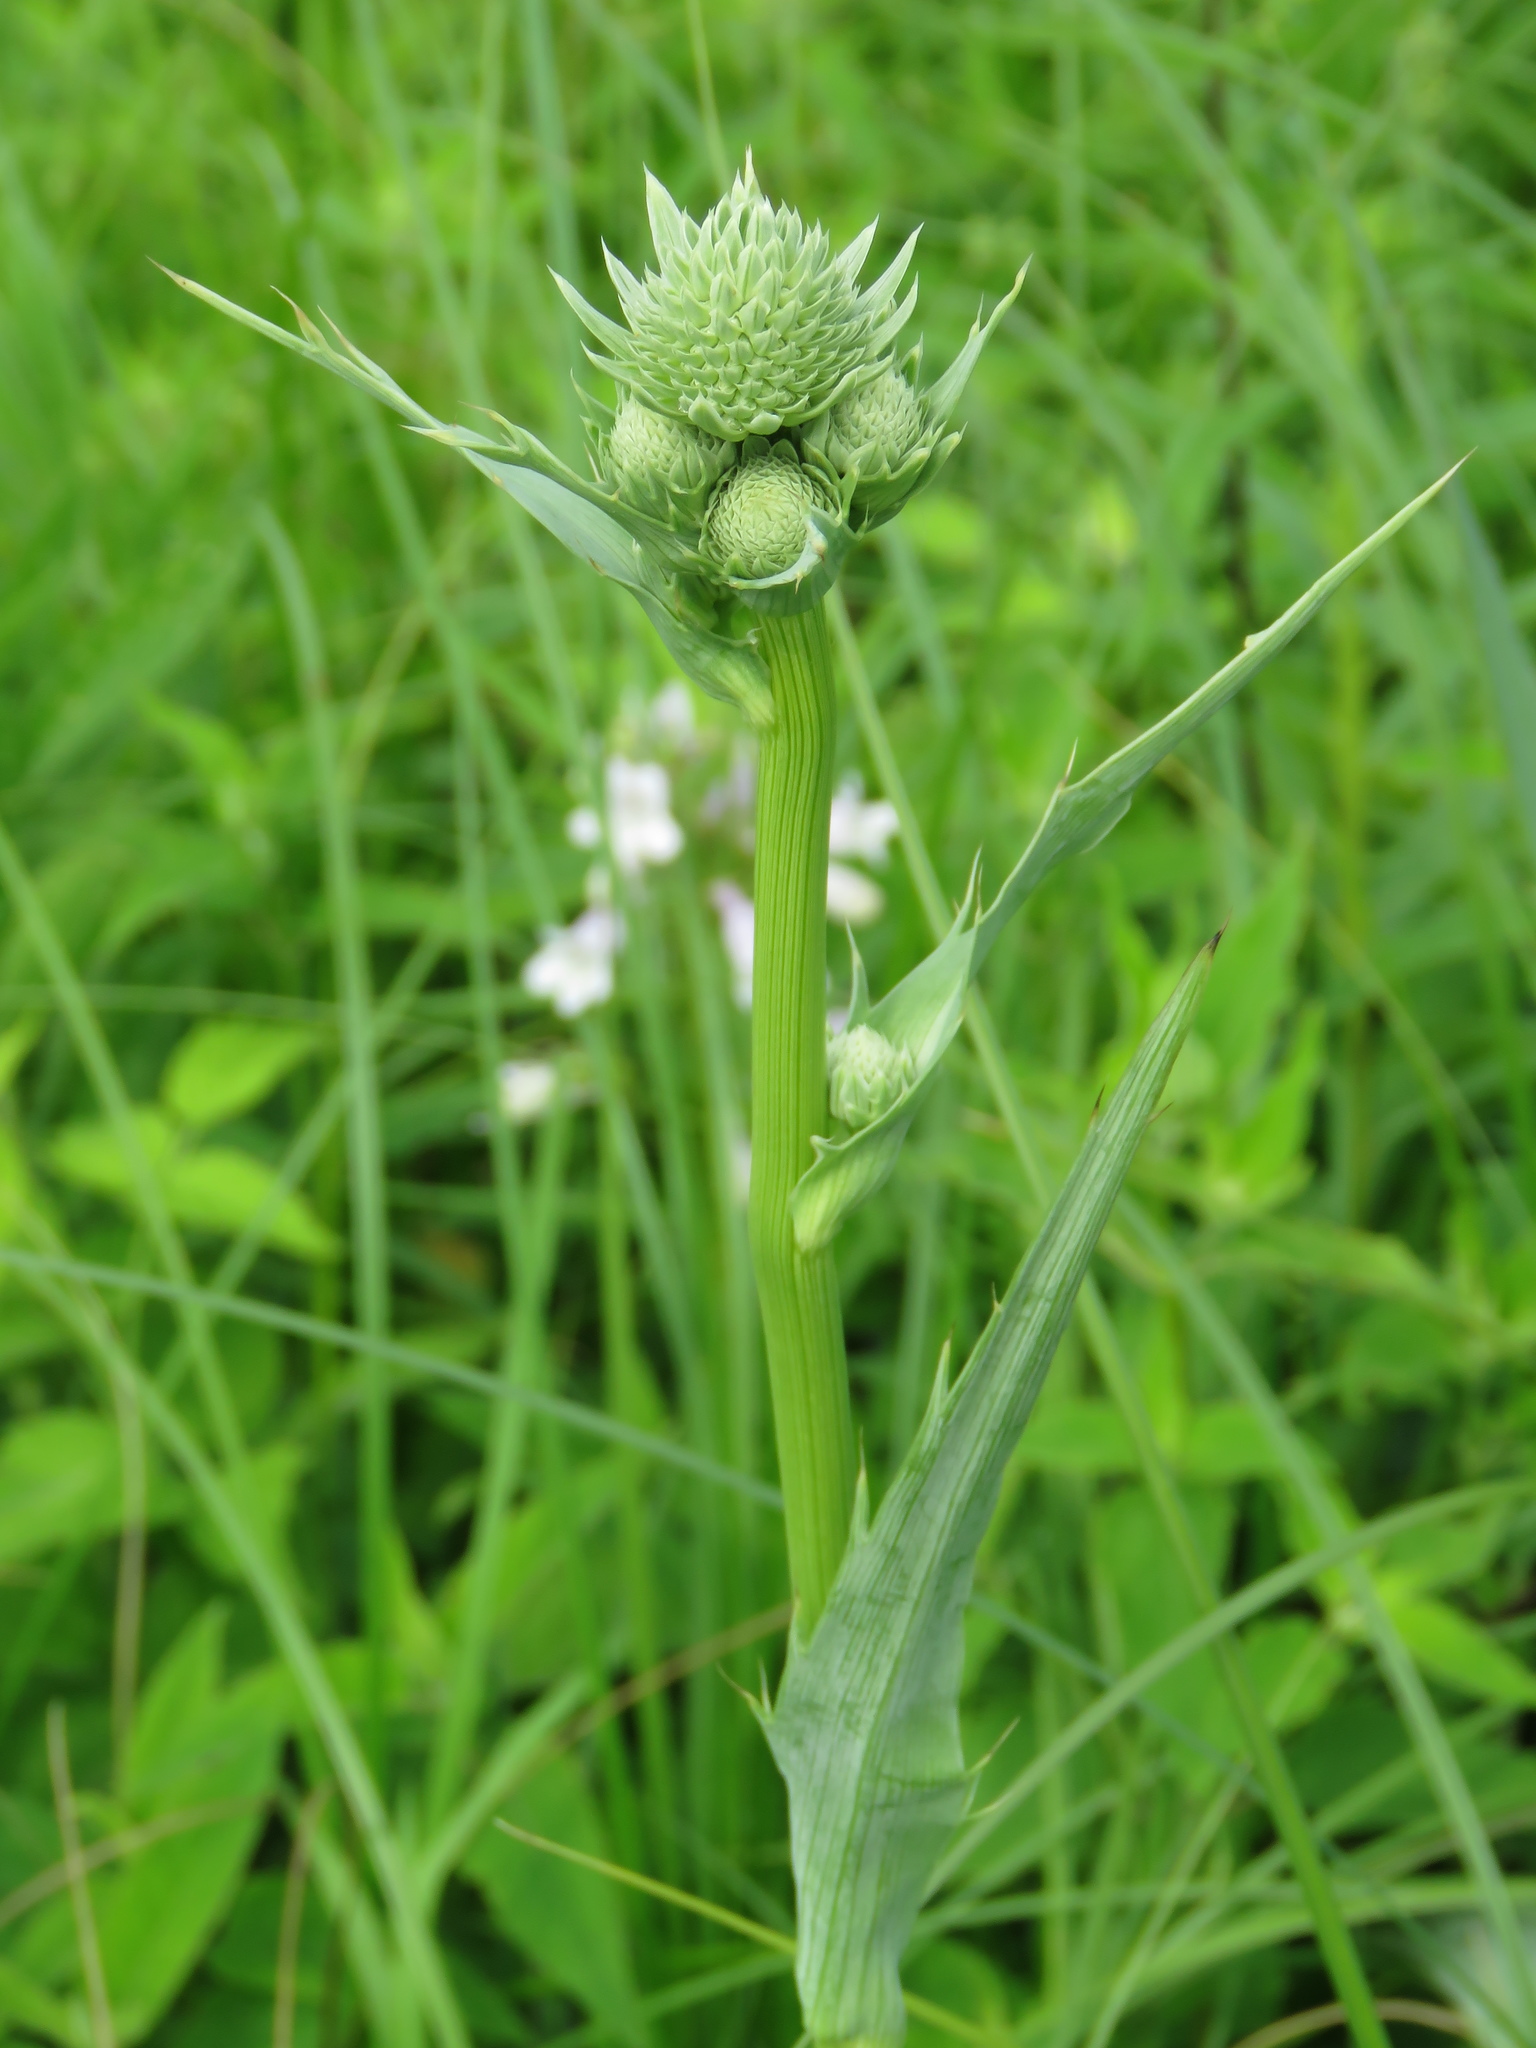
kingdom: Plantae
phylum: Tracheophyta
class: Magnoliopsida
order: Apiales
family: Apiaceae
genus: Eryngium
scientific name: Eryngium yuccifolium
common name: Button eryngo
